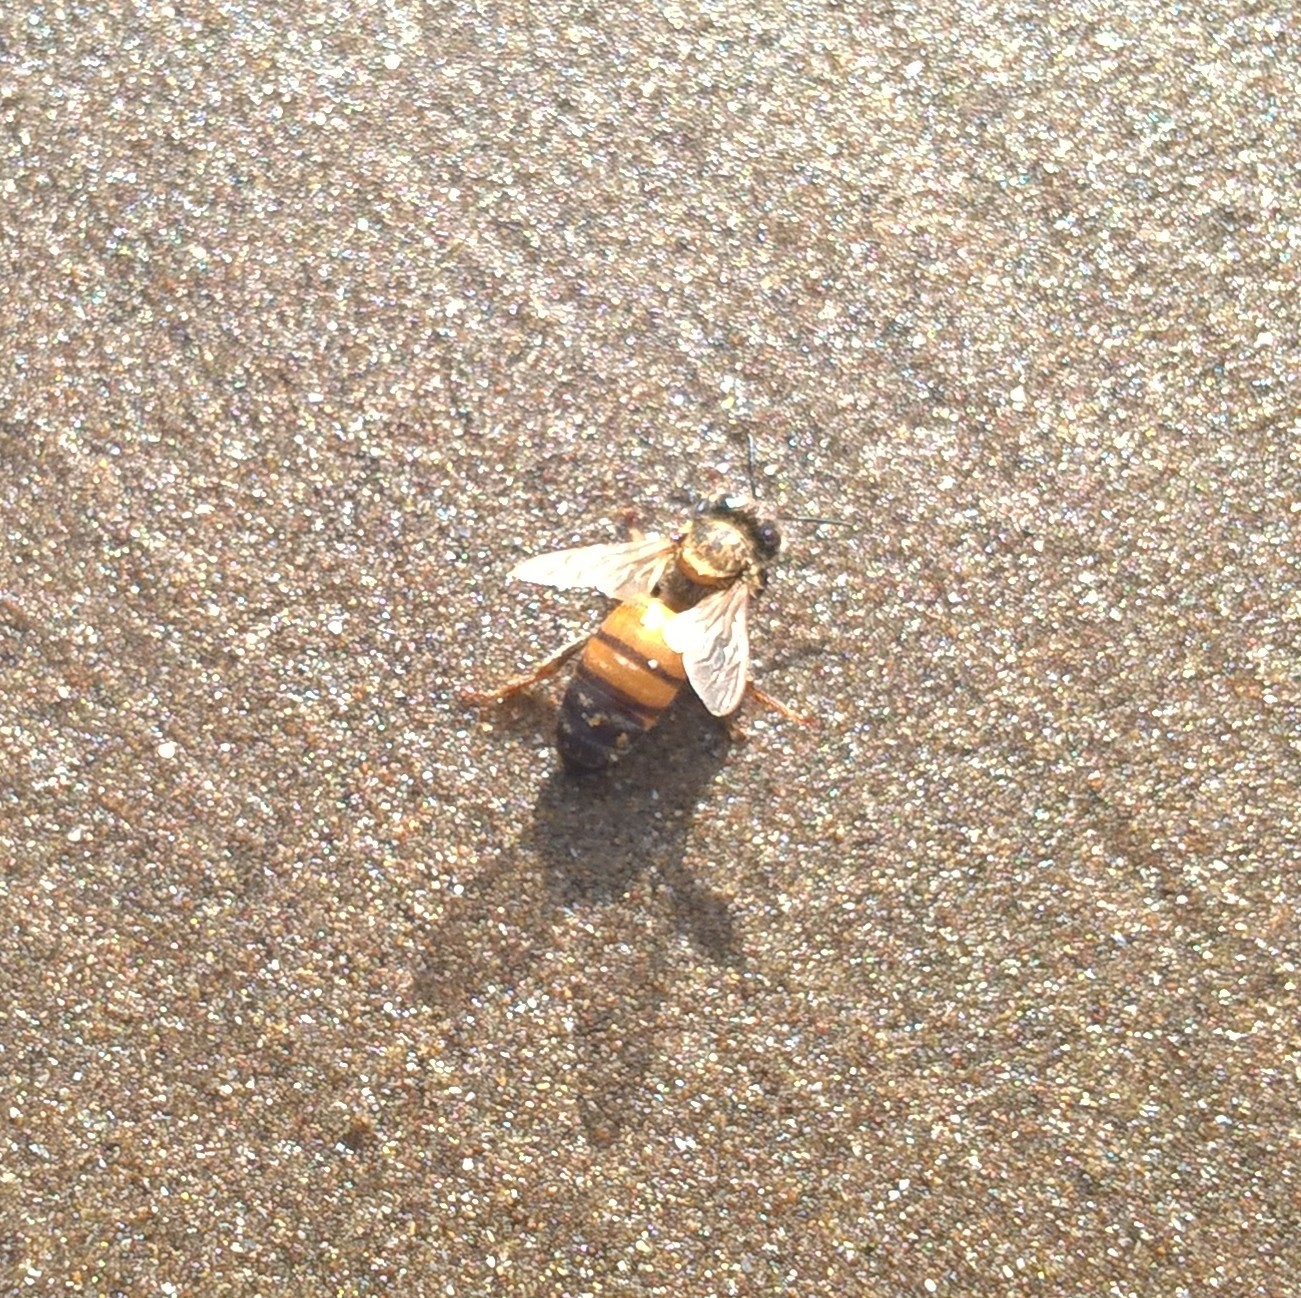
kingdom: Animalia
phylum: Arthropoda
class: Insecta
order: Hymenoptera
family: Apidae
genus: Apis
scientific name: Apis mellifera
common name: Honey bee
